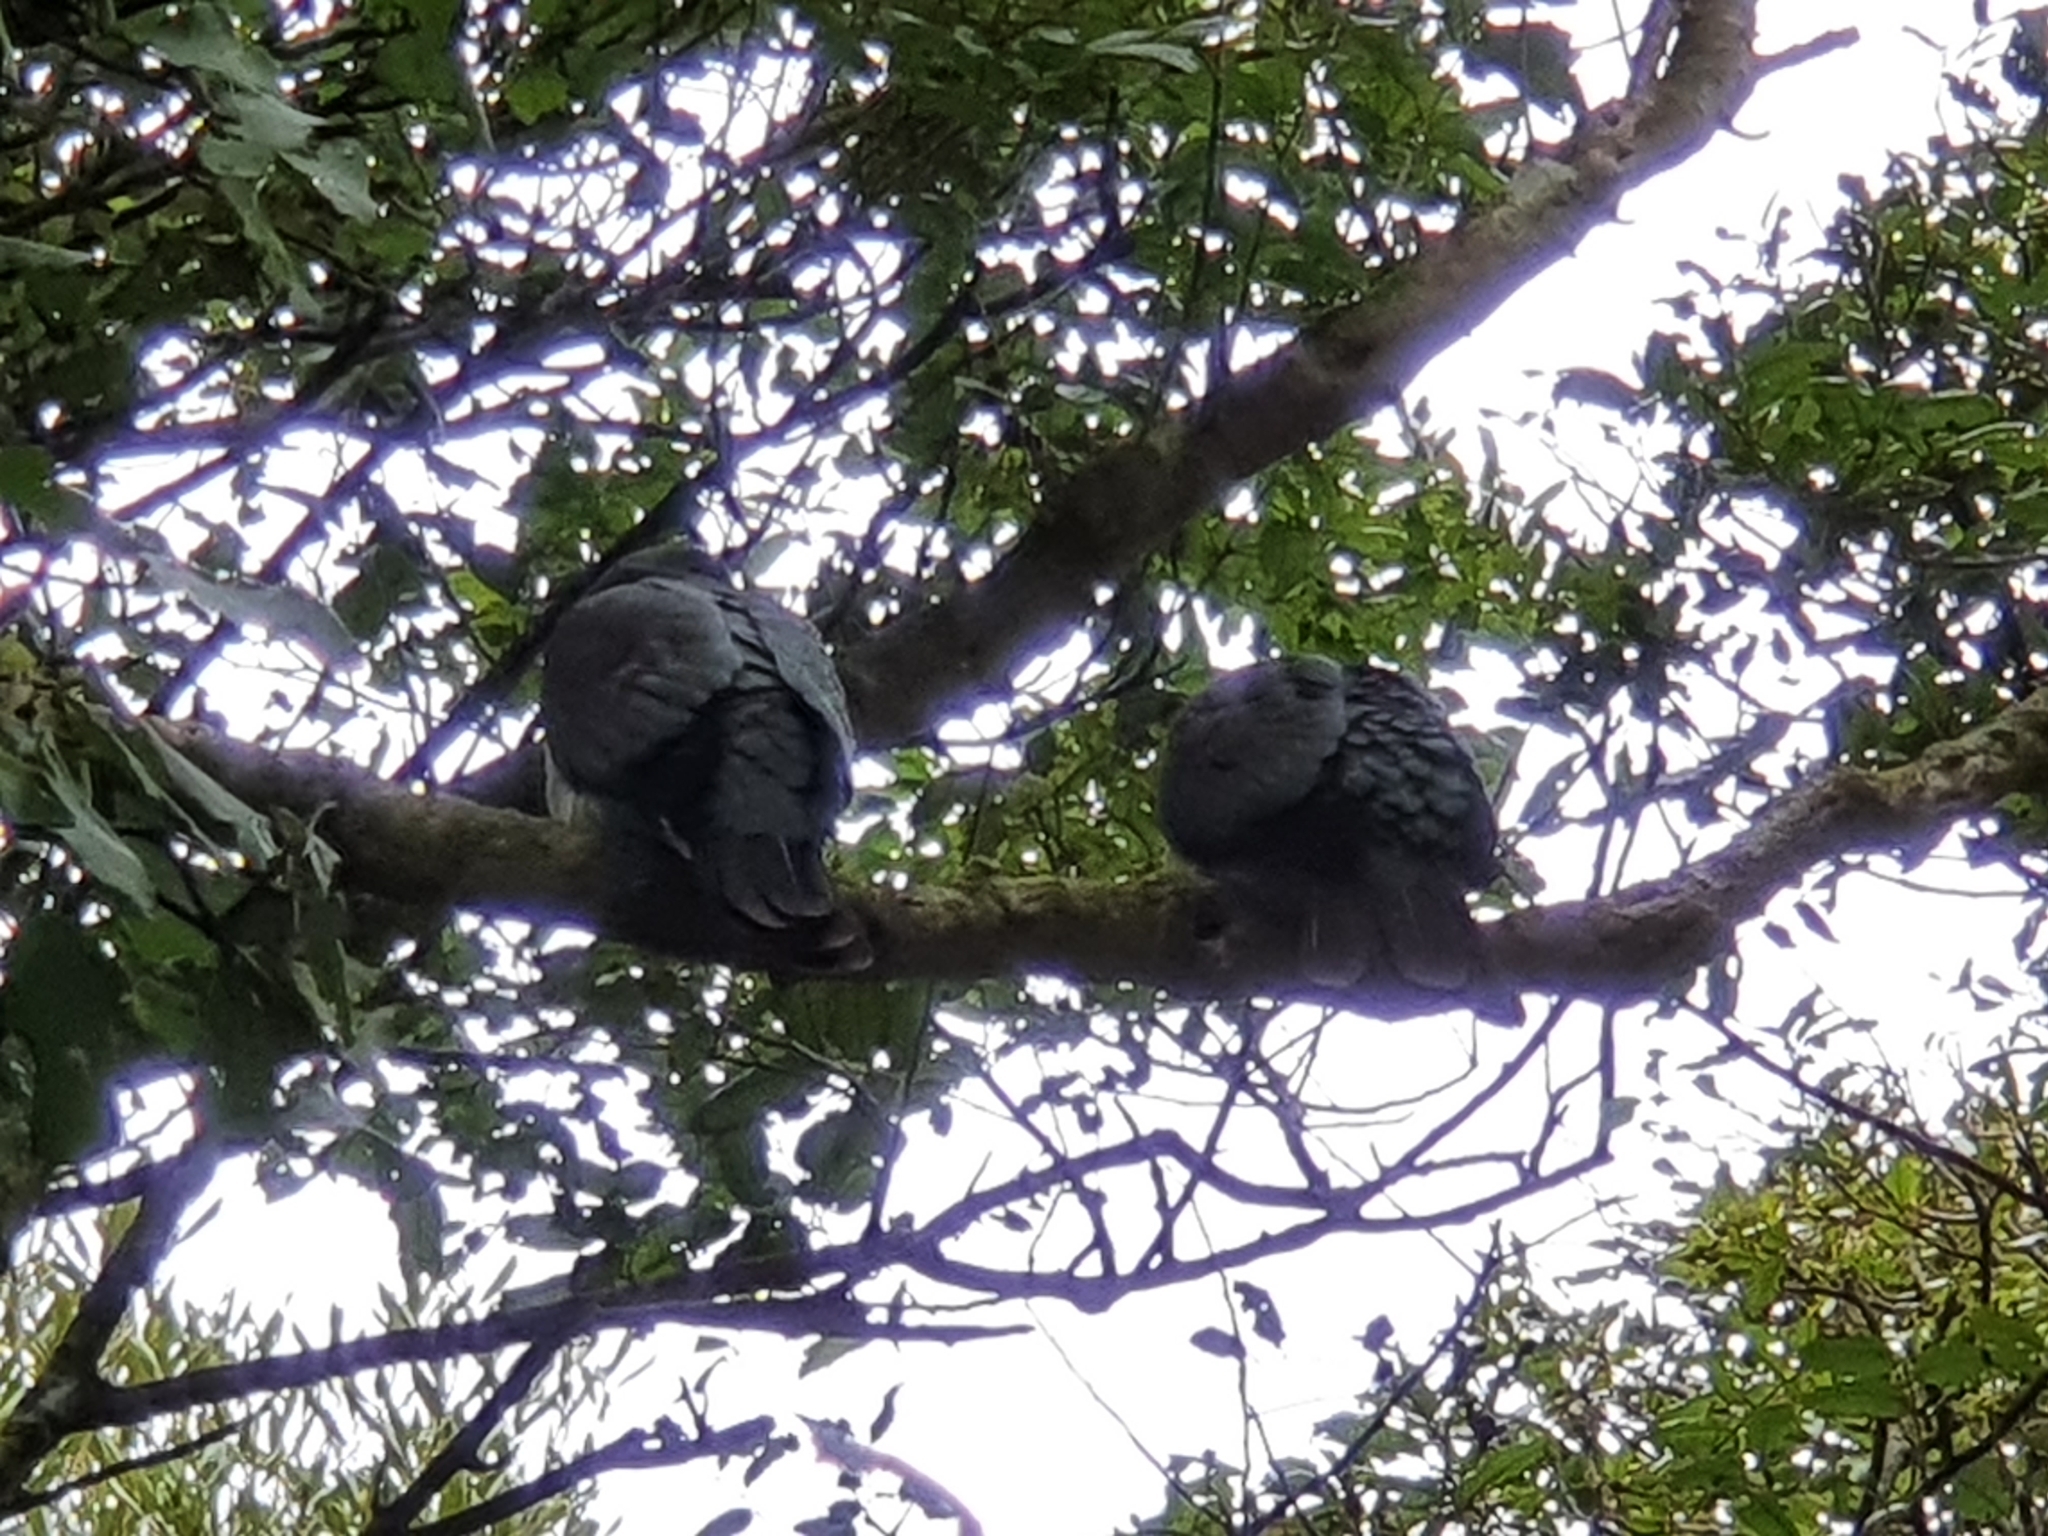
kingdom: Animalia
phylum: Chordata
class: Aves
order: Columbiformes
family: Columbidae
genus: Hemiphaga
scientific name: Hemiphaga novaeseelandiae
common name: New zealand pigeon
